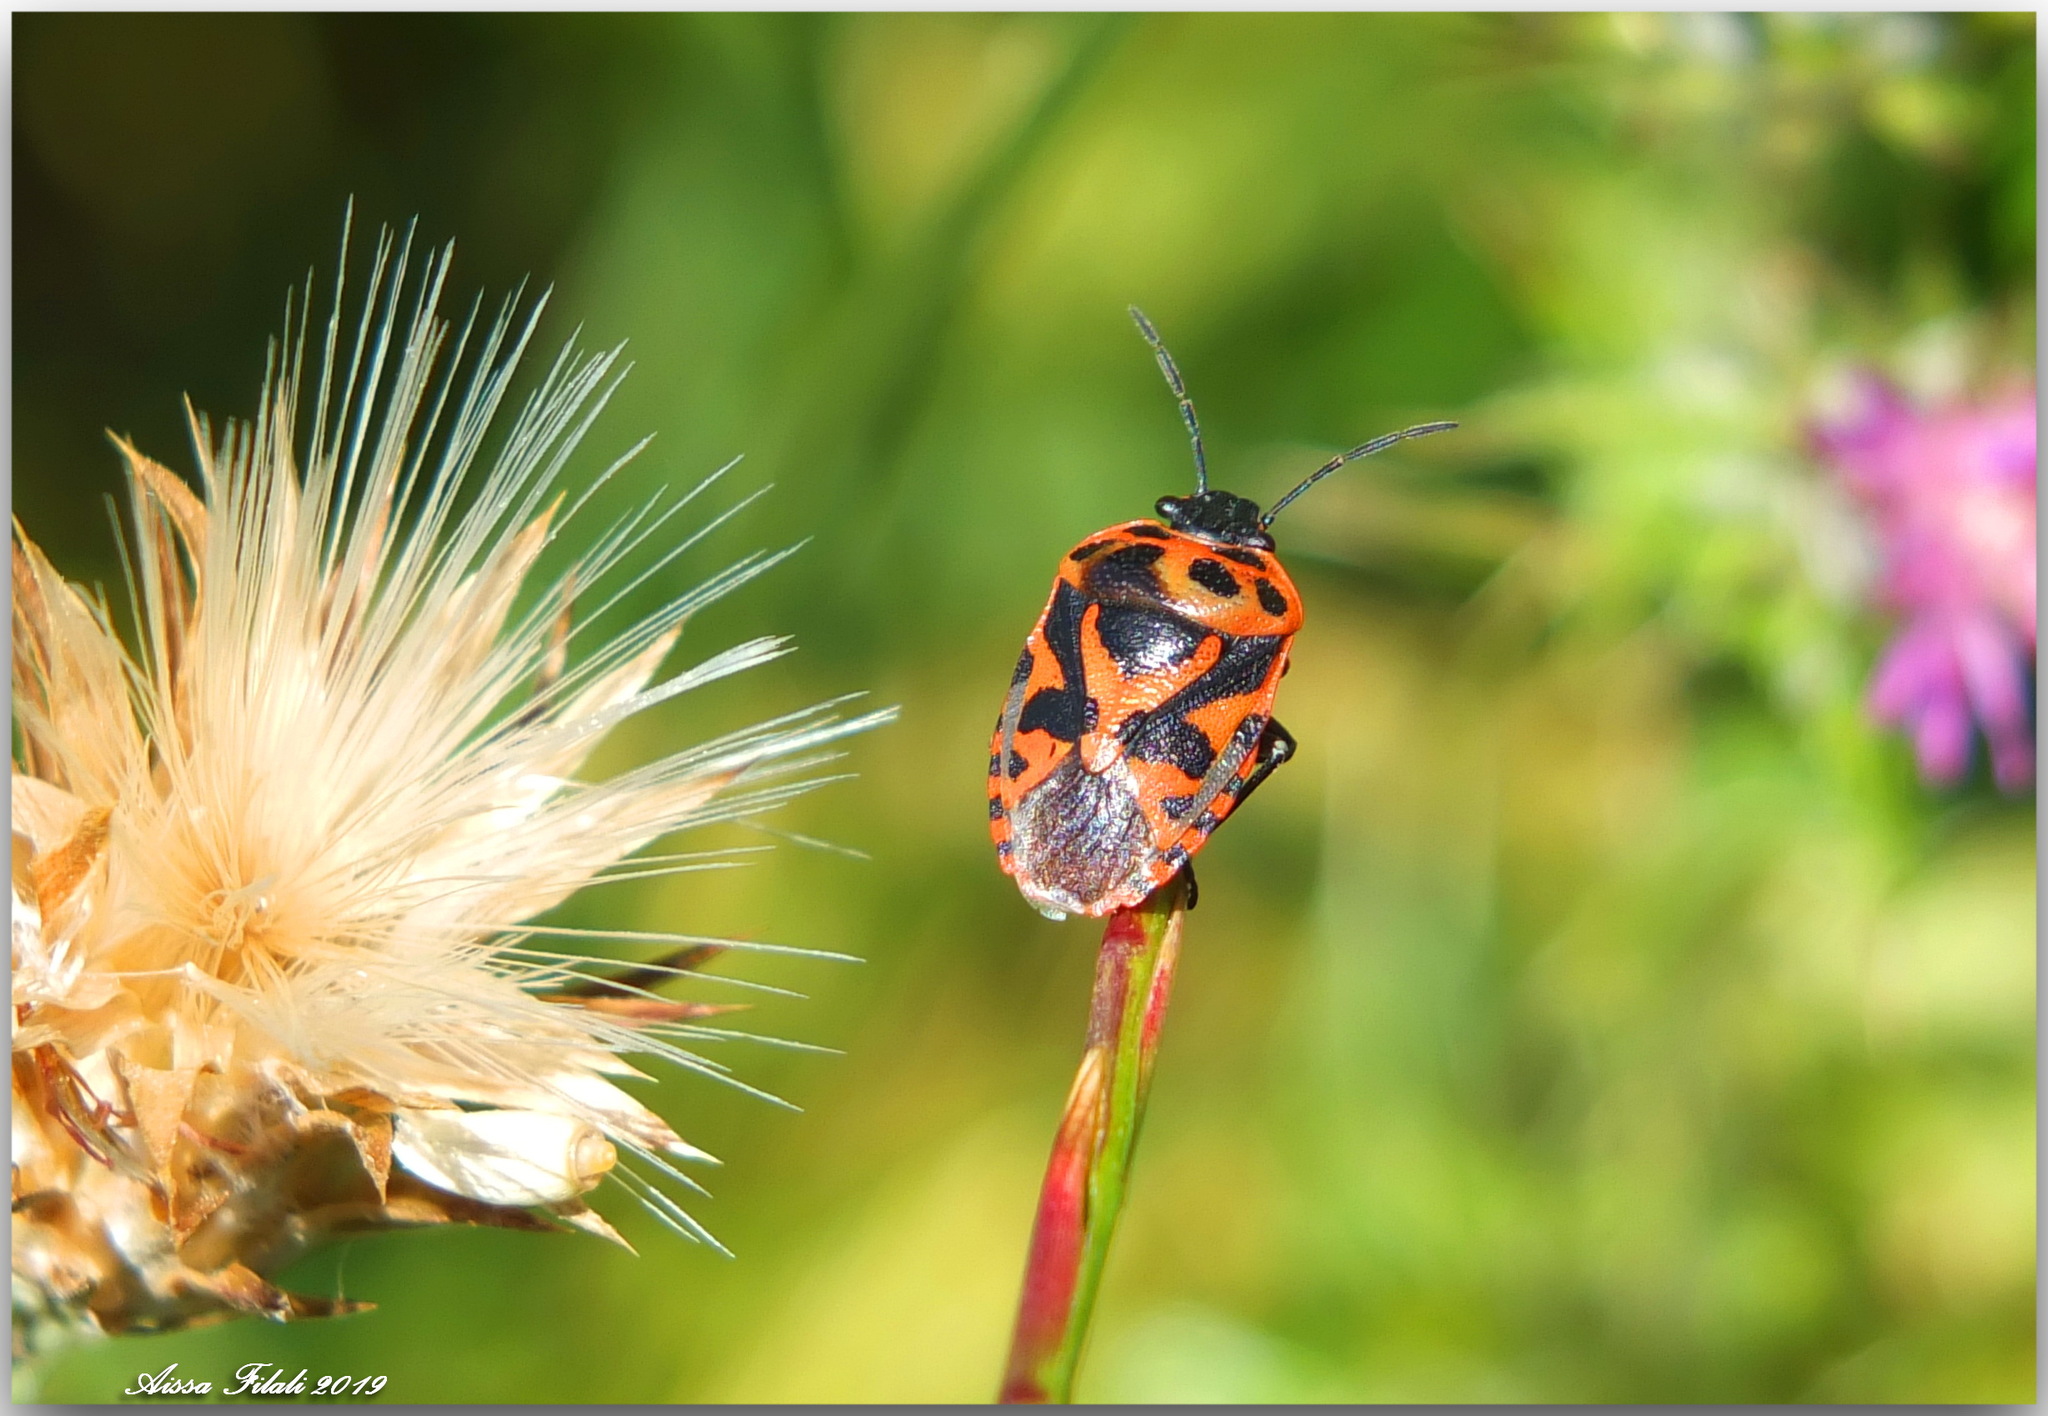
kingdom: Animalia
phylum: Arthropoda
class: Insecta
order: Hemiptera
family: Pentatomidae
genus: Eurydema
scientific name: Eurydema ornata
